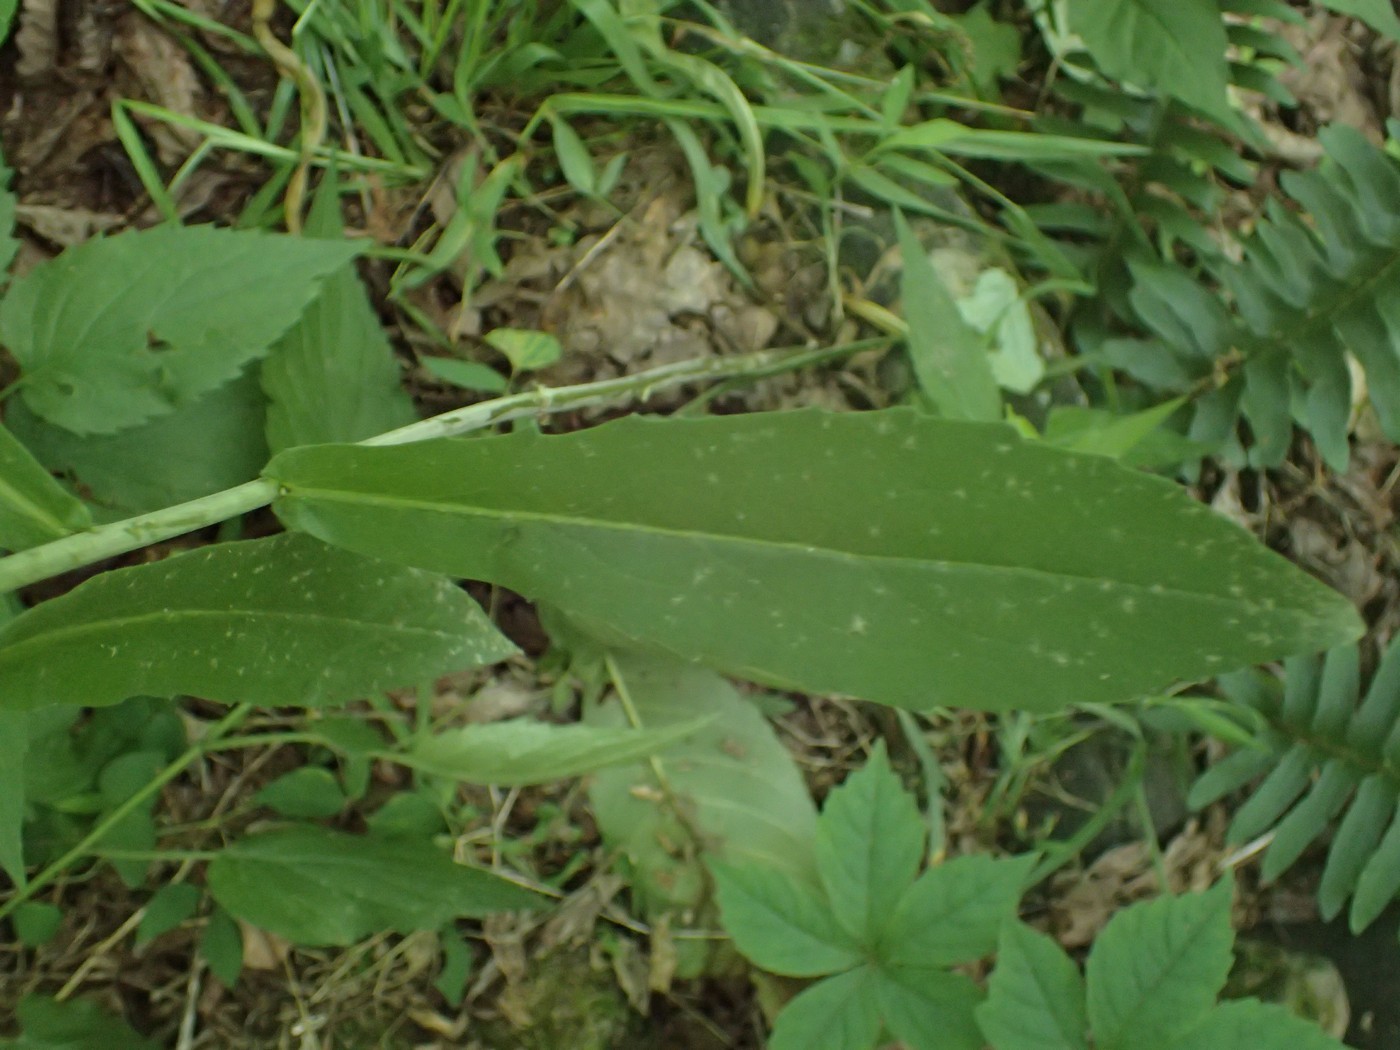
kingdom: Plantae
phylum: Tracheophyta
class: Magnoliopsida
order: Brassicales
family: Brassicaceae
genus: Borodinia
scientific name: Borodinia canadensis
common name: Sicklepod
